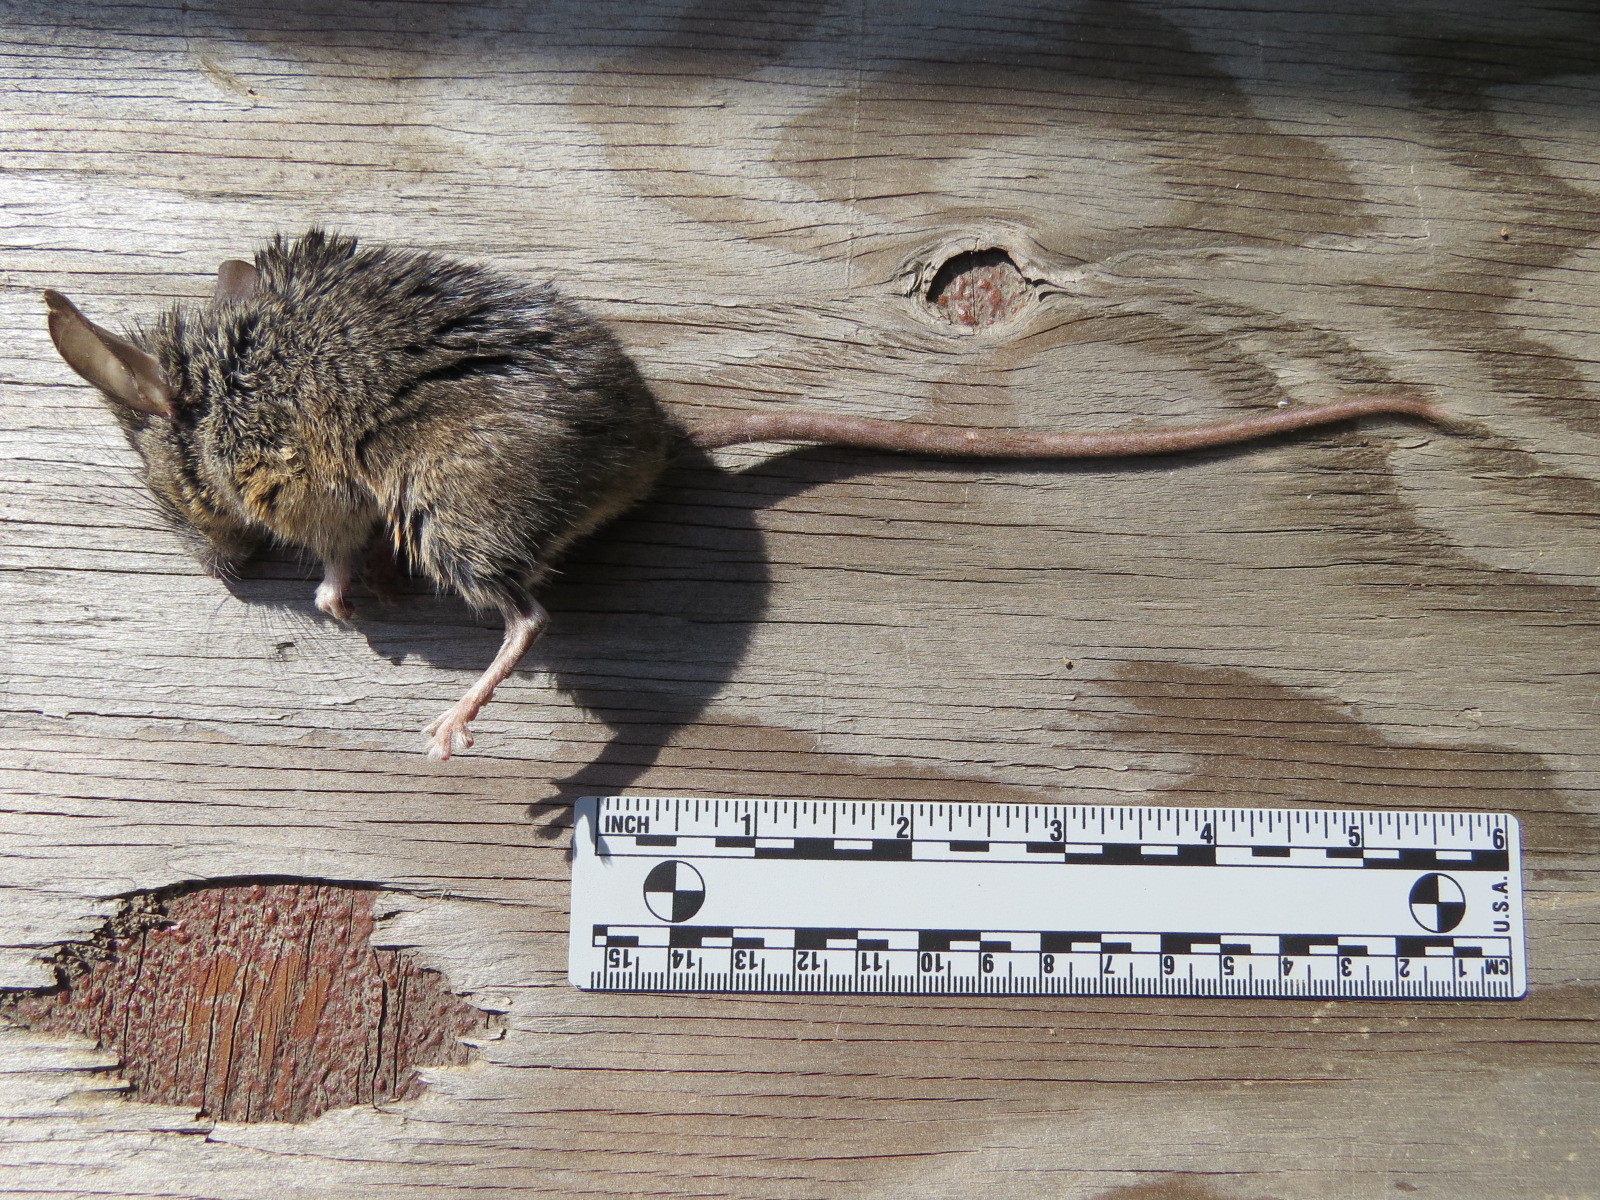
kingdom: Animalia
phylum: Chordata
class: Mammalia
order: Rodentia
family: Cricetidae
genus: Peromyscus
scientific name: Peromyscus californicus
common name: California deermouse
